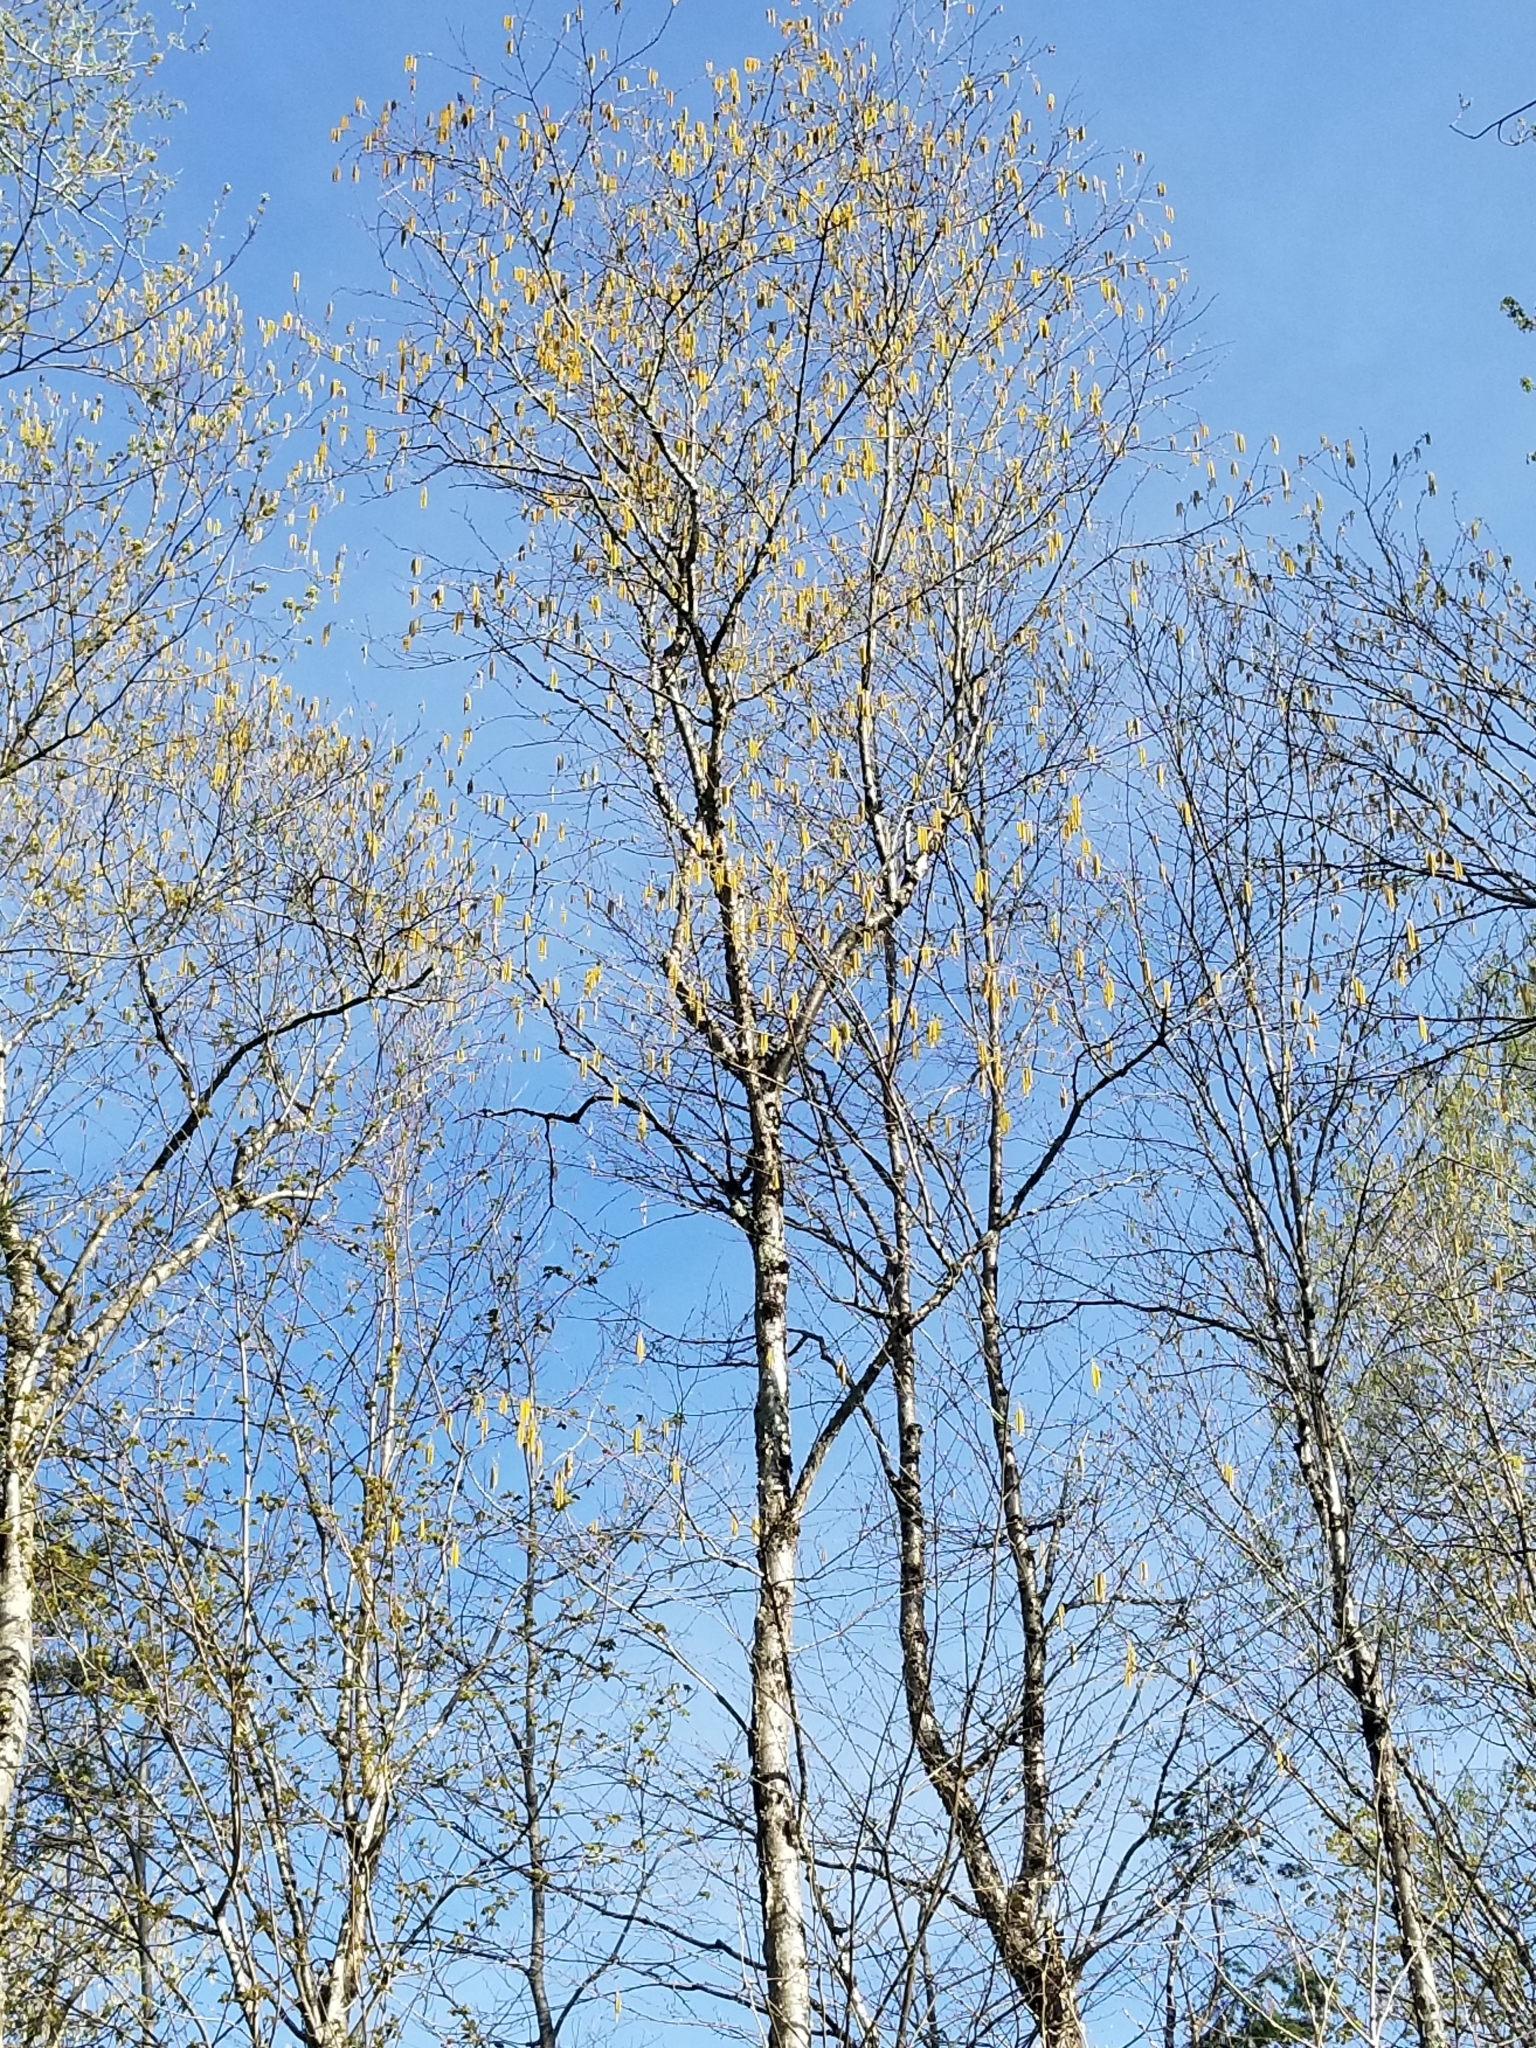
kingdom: Plantae
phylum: Tracheophyta
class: Magnoliopsida
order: Fagales
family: Betulaceae
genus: Betula
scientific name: Betula alleghaniensis
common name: Yellow birch
